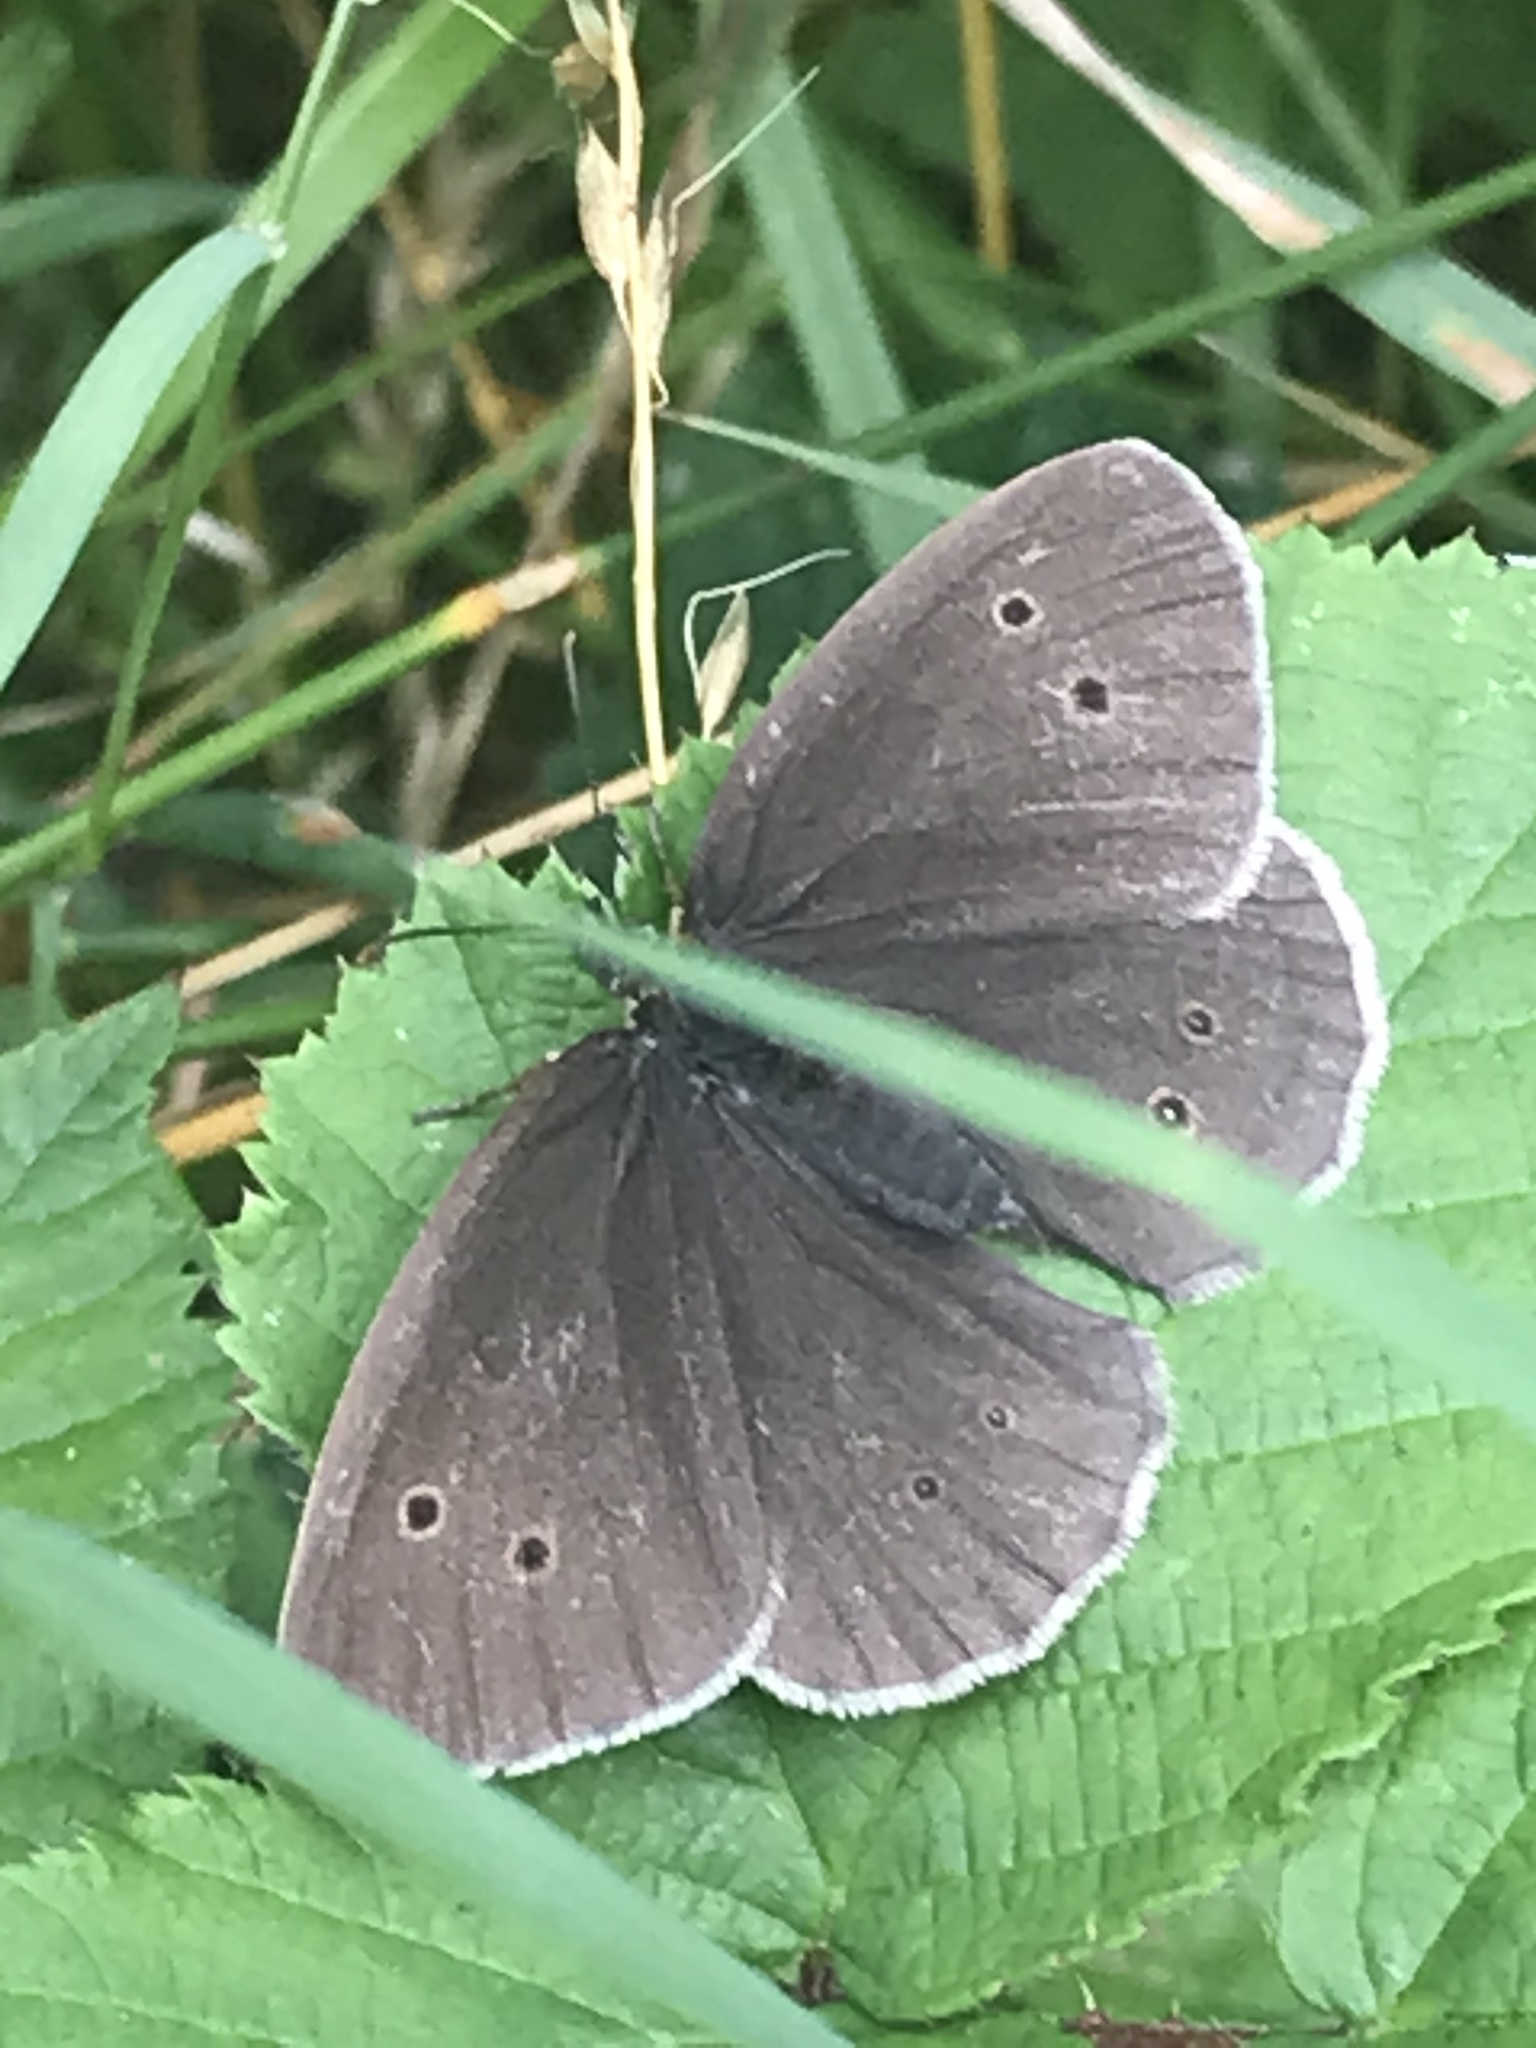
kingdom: Animalia
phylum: Arthropoda
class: Insecta
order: Lepidoptera
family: Nymphalidae
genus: Aphantopus
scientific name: Aphantopus hyperantus
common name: Ringlet
